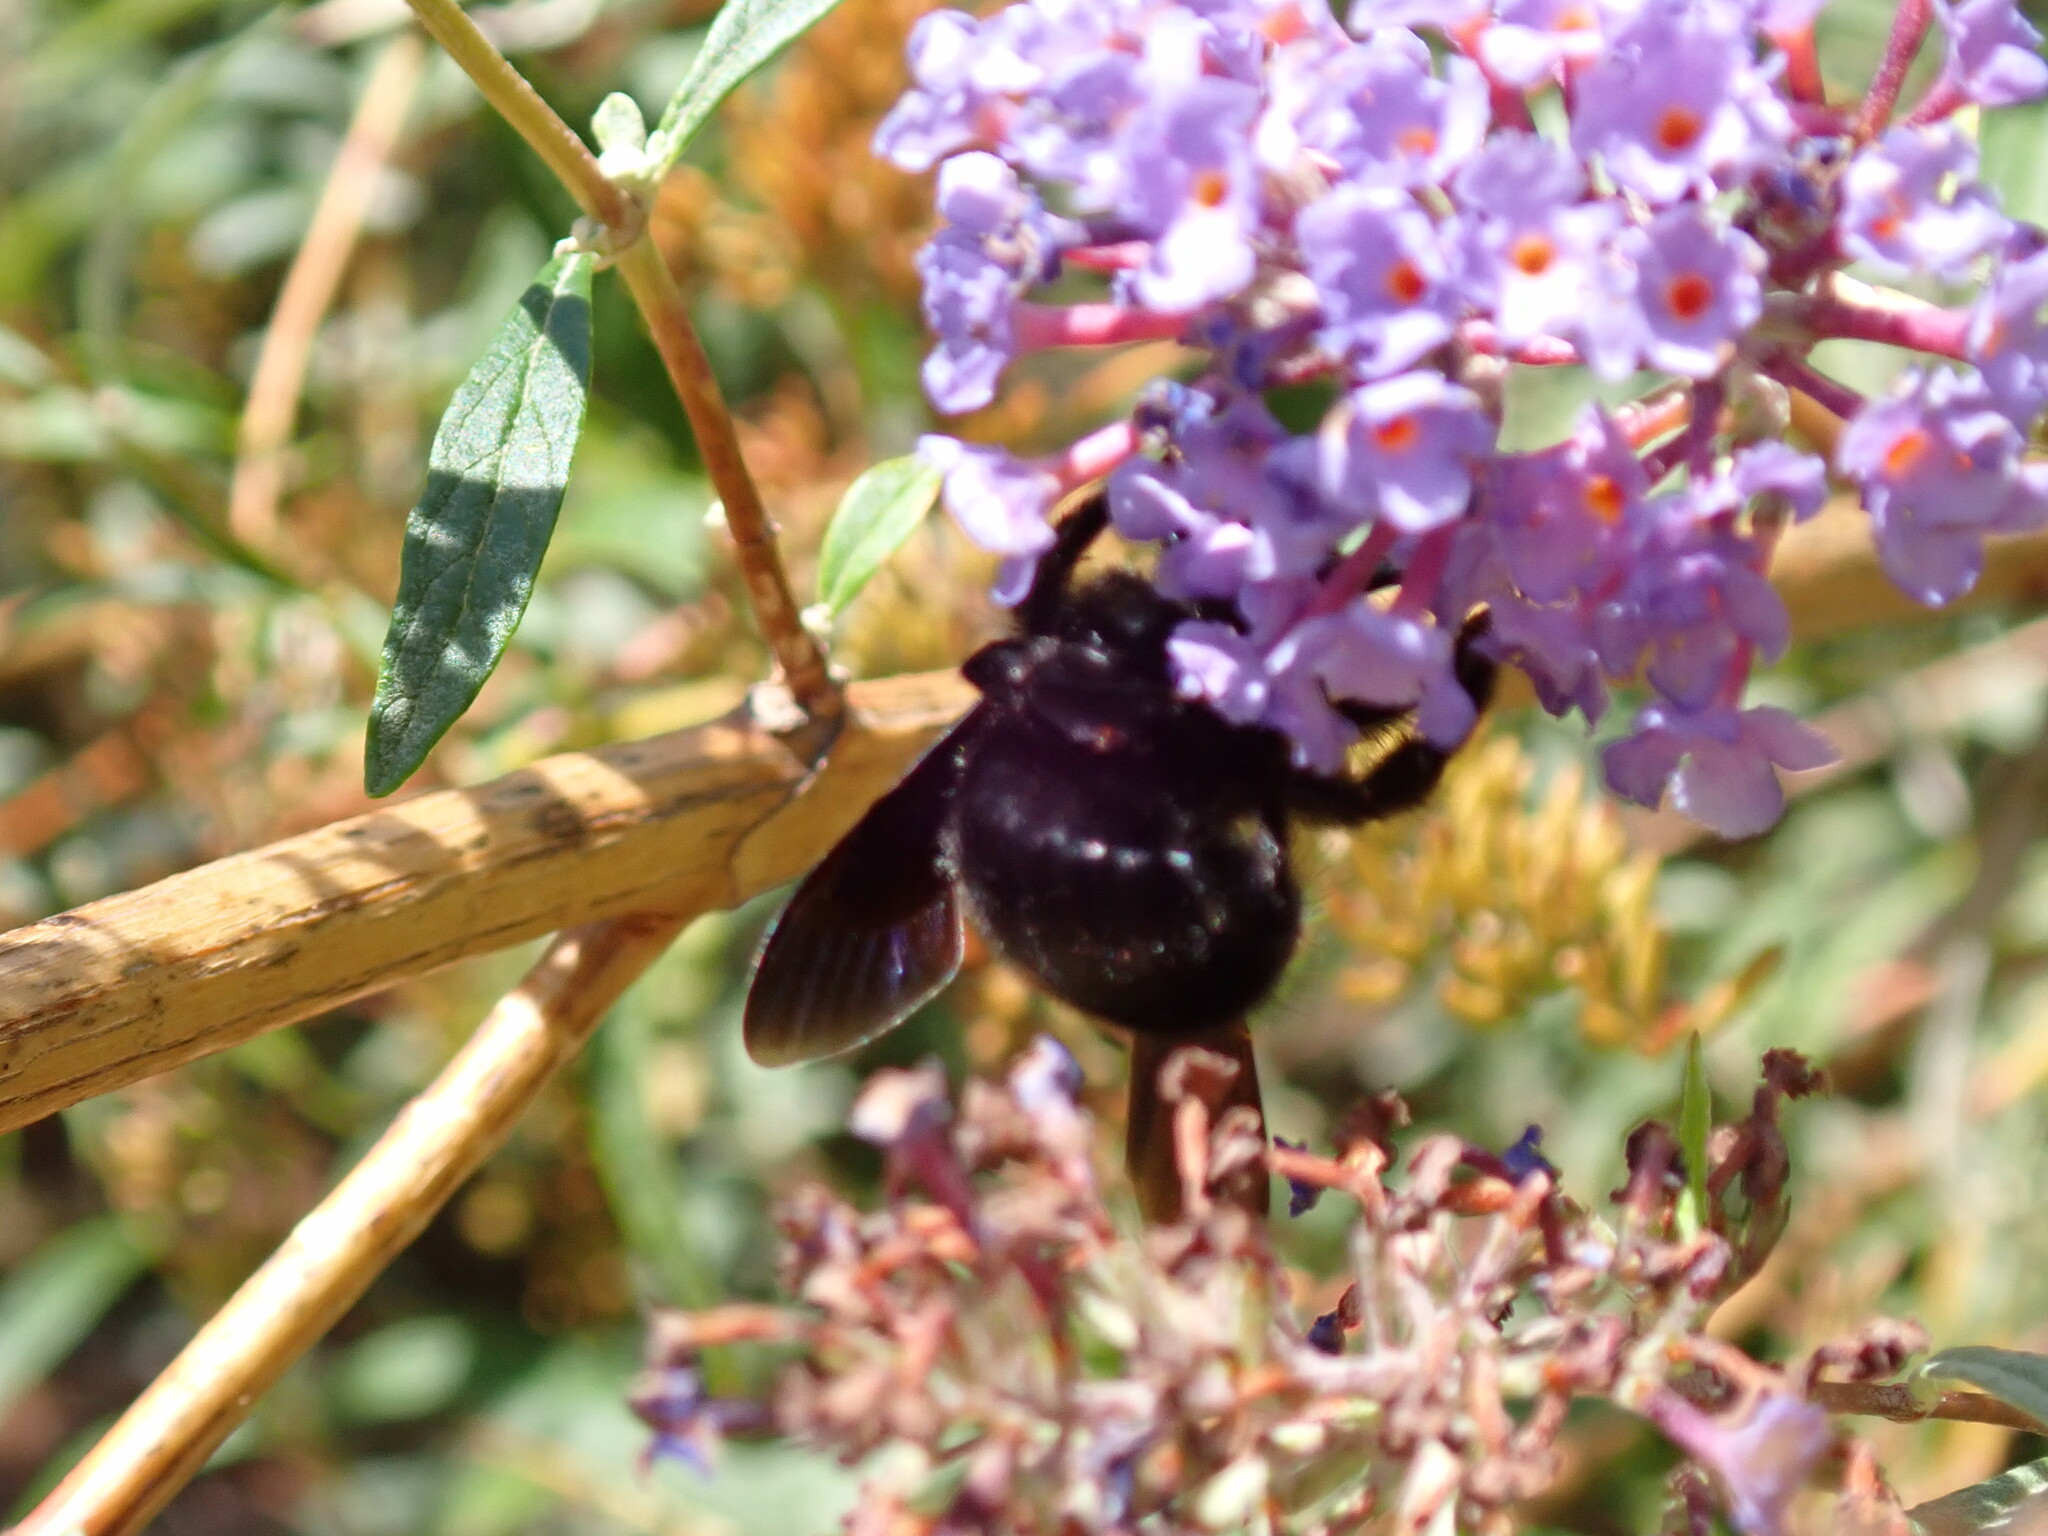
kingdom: Animalia
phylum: Arthropoda
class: Insecta
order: Hymenoptera
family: Apidae
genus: Xylocopa
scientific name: Xylocopa violacea
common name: Violet carpenter bee
